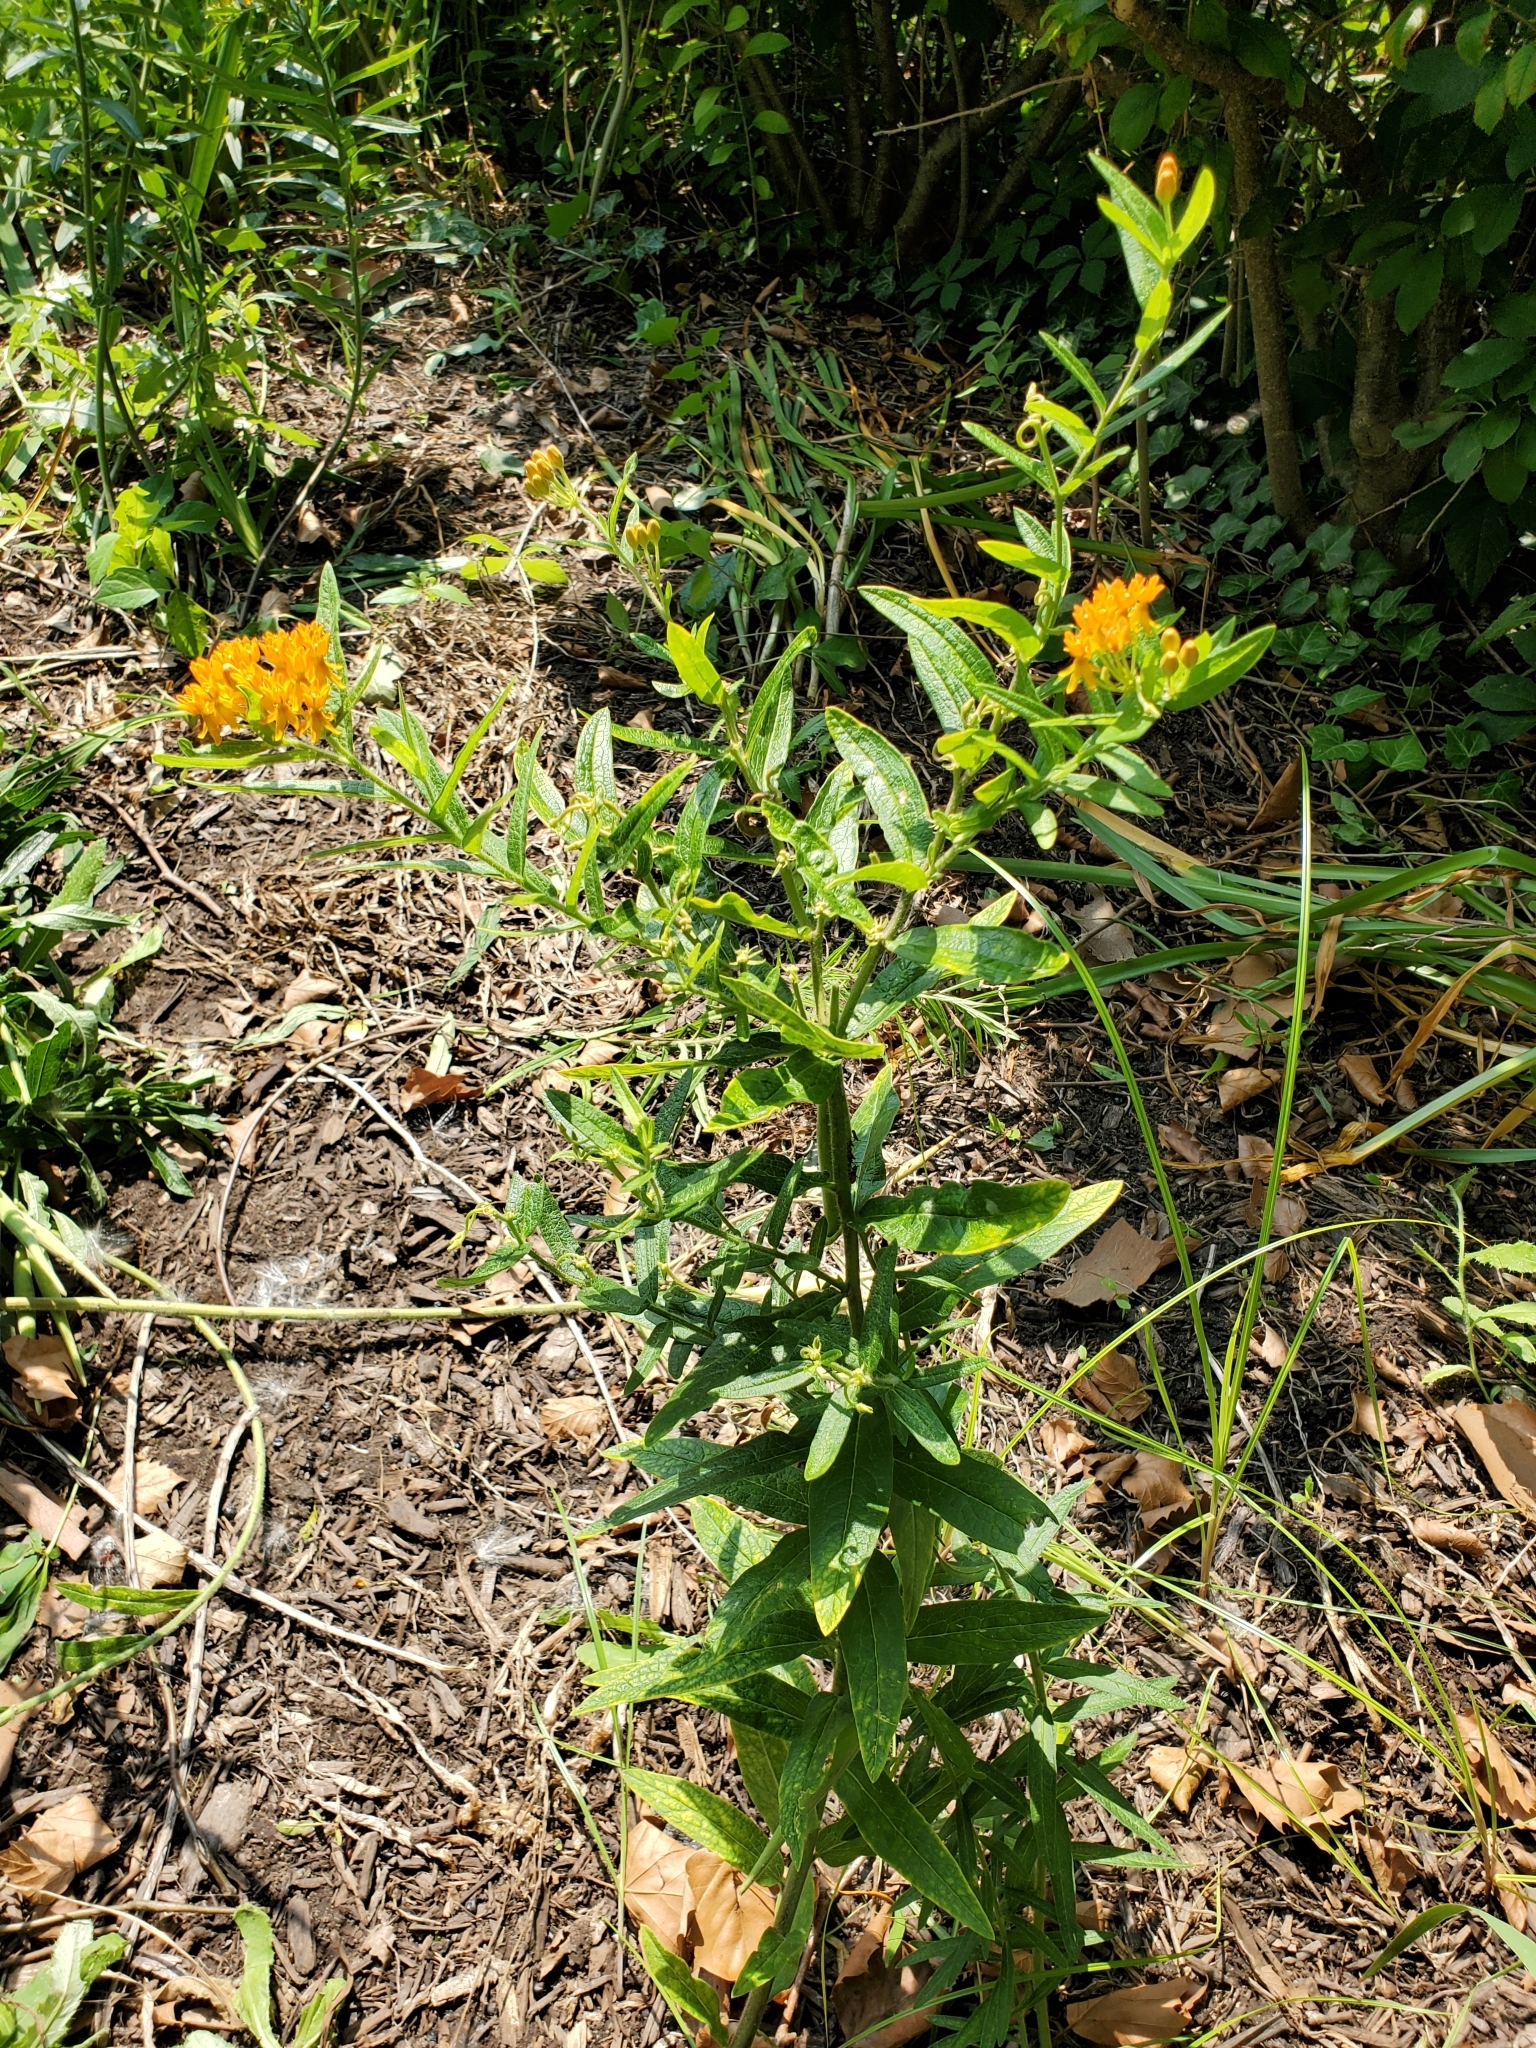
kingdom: Plantae
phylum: Tracheophyta
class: Magnoliopsida
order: Gentianales
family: Apocynaceae
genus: Asclepias
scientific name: Asclepias tuberosa
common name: Butterfly milkweed
